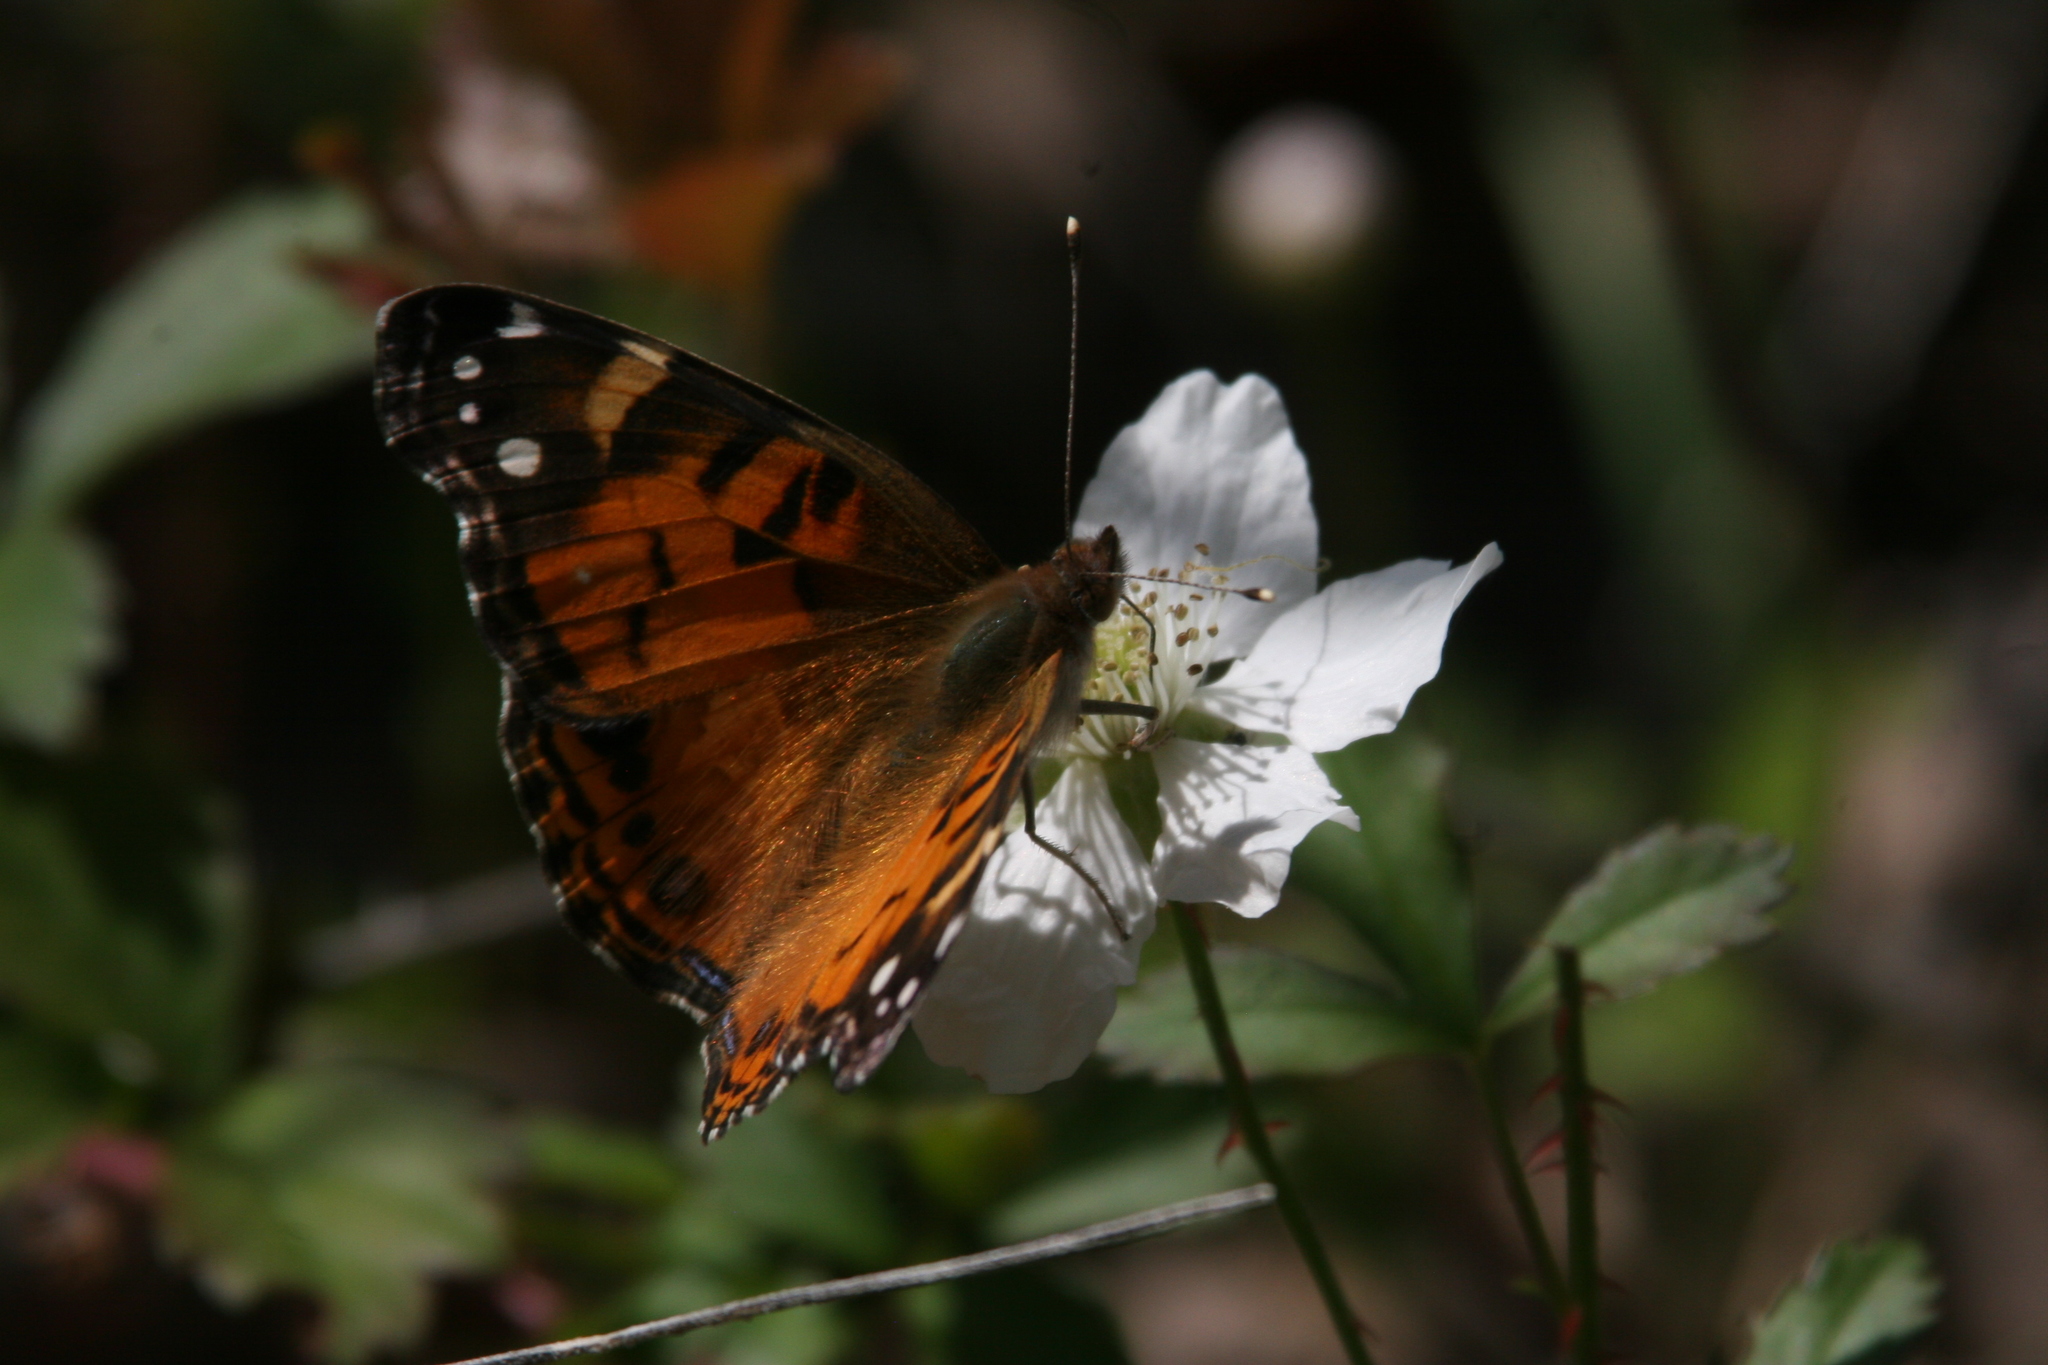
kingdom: Animalia
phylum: Arthropoda
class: Insecta
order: Lepidoptera
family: Nymphalidae
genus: Vanessa
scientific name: Vanessa virginiensis
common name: American lady
